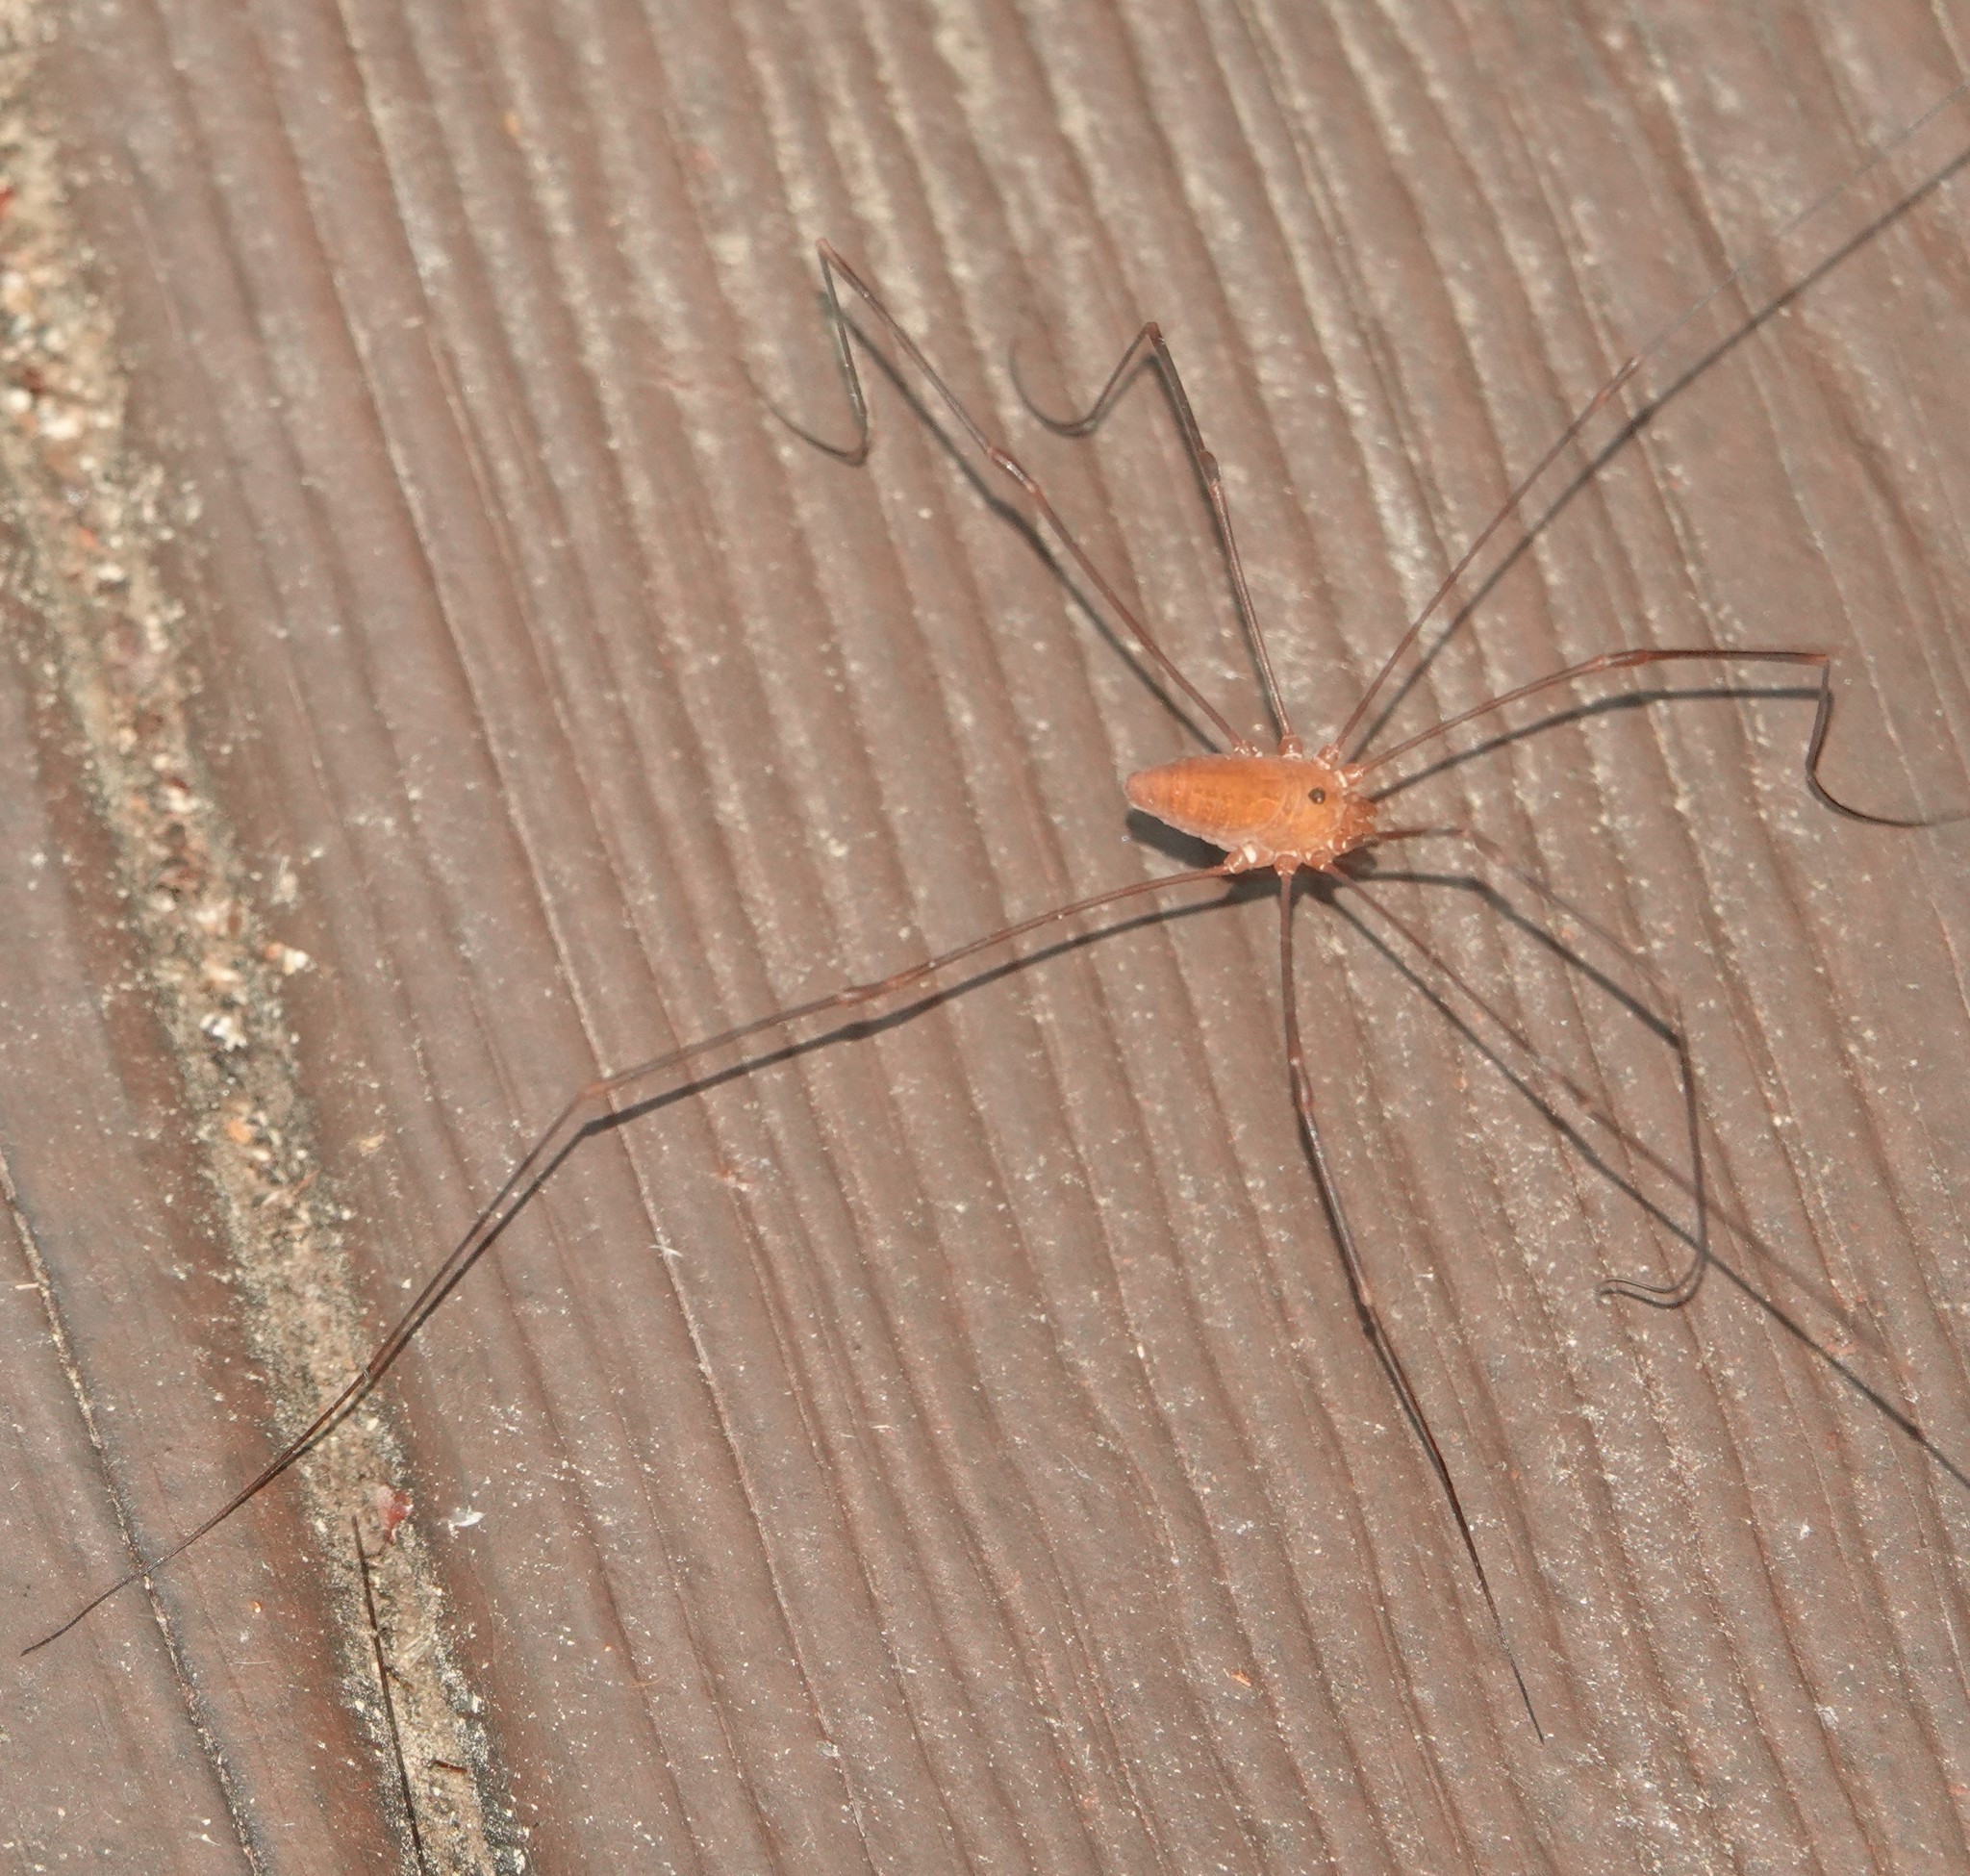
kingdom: Animalia
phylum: Arthropoda
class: Arachnida
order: Opiliones
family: Sclerosomatidae
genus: Leiobunum
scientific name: Leiobunum ventricosum
